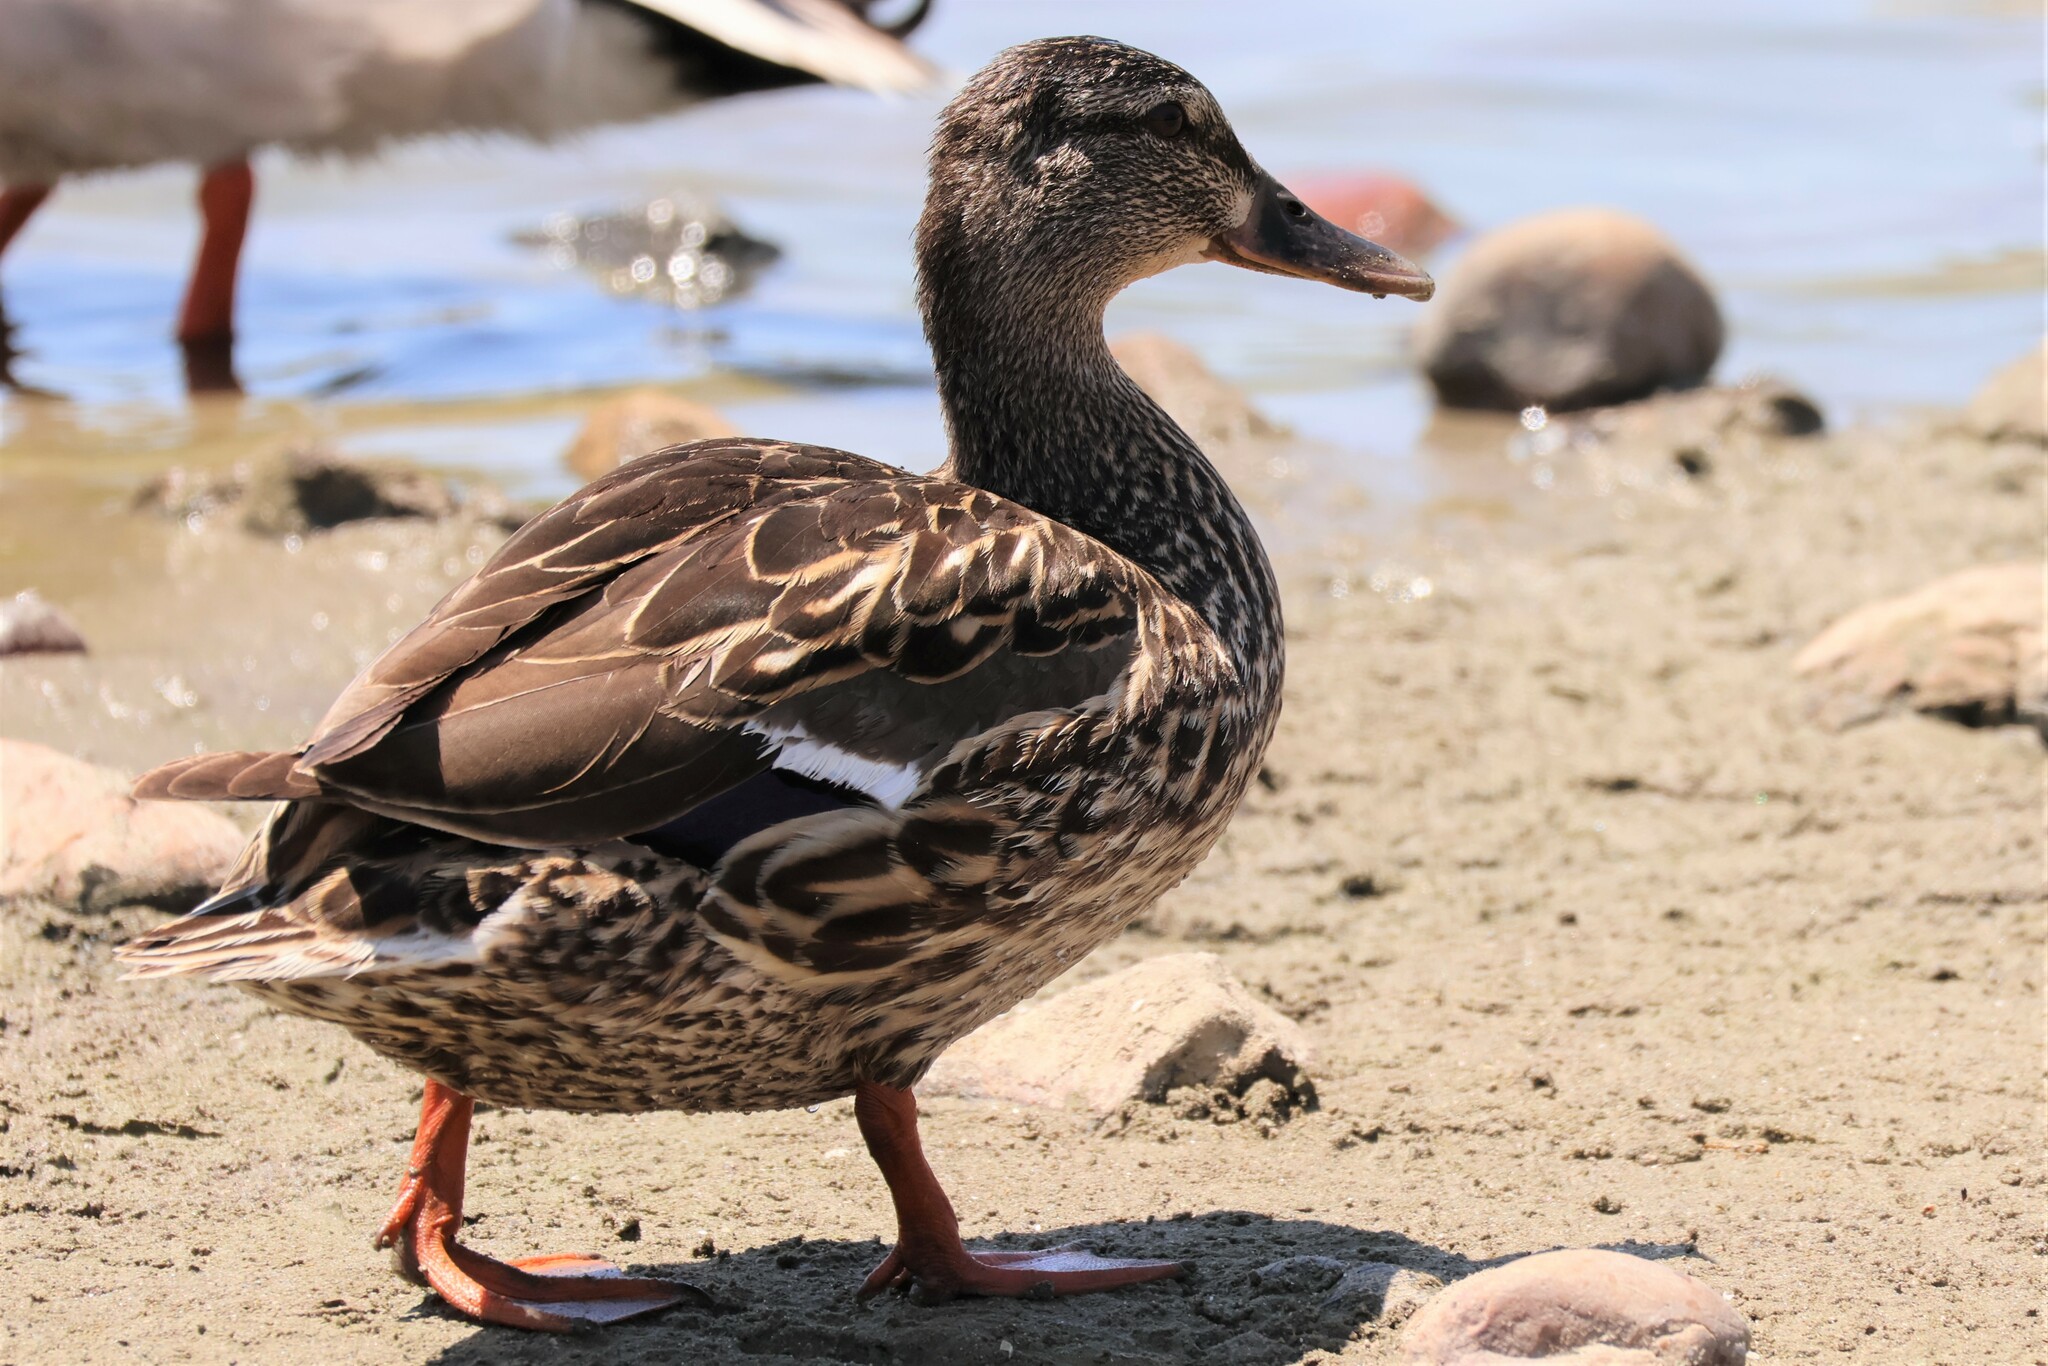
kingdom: Animalia
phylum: Chordata
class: Aves
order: Anseriformes
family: Anatidae
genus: Anas
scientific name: Anas platyrhynchos
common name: Mallard
